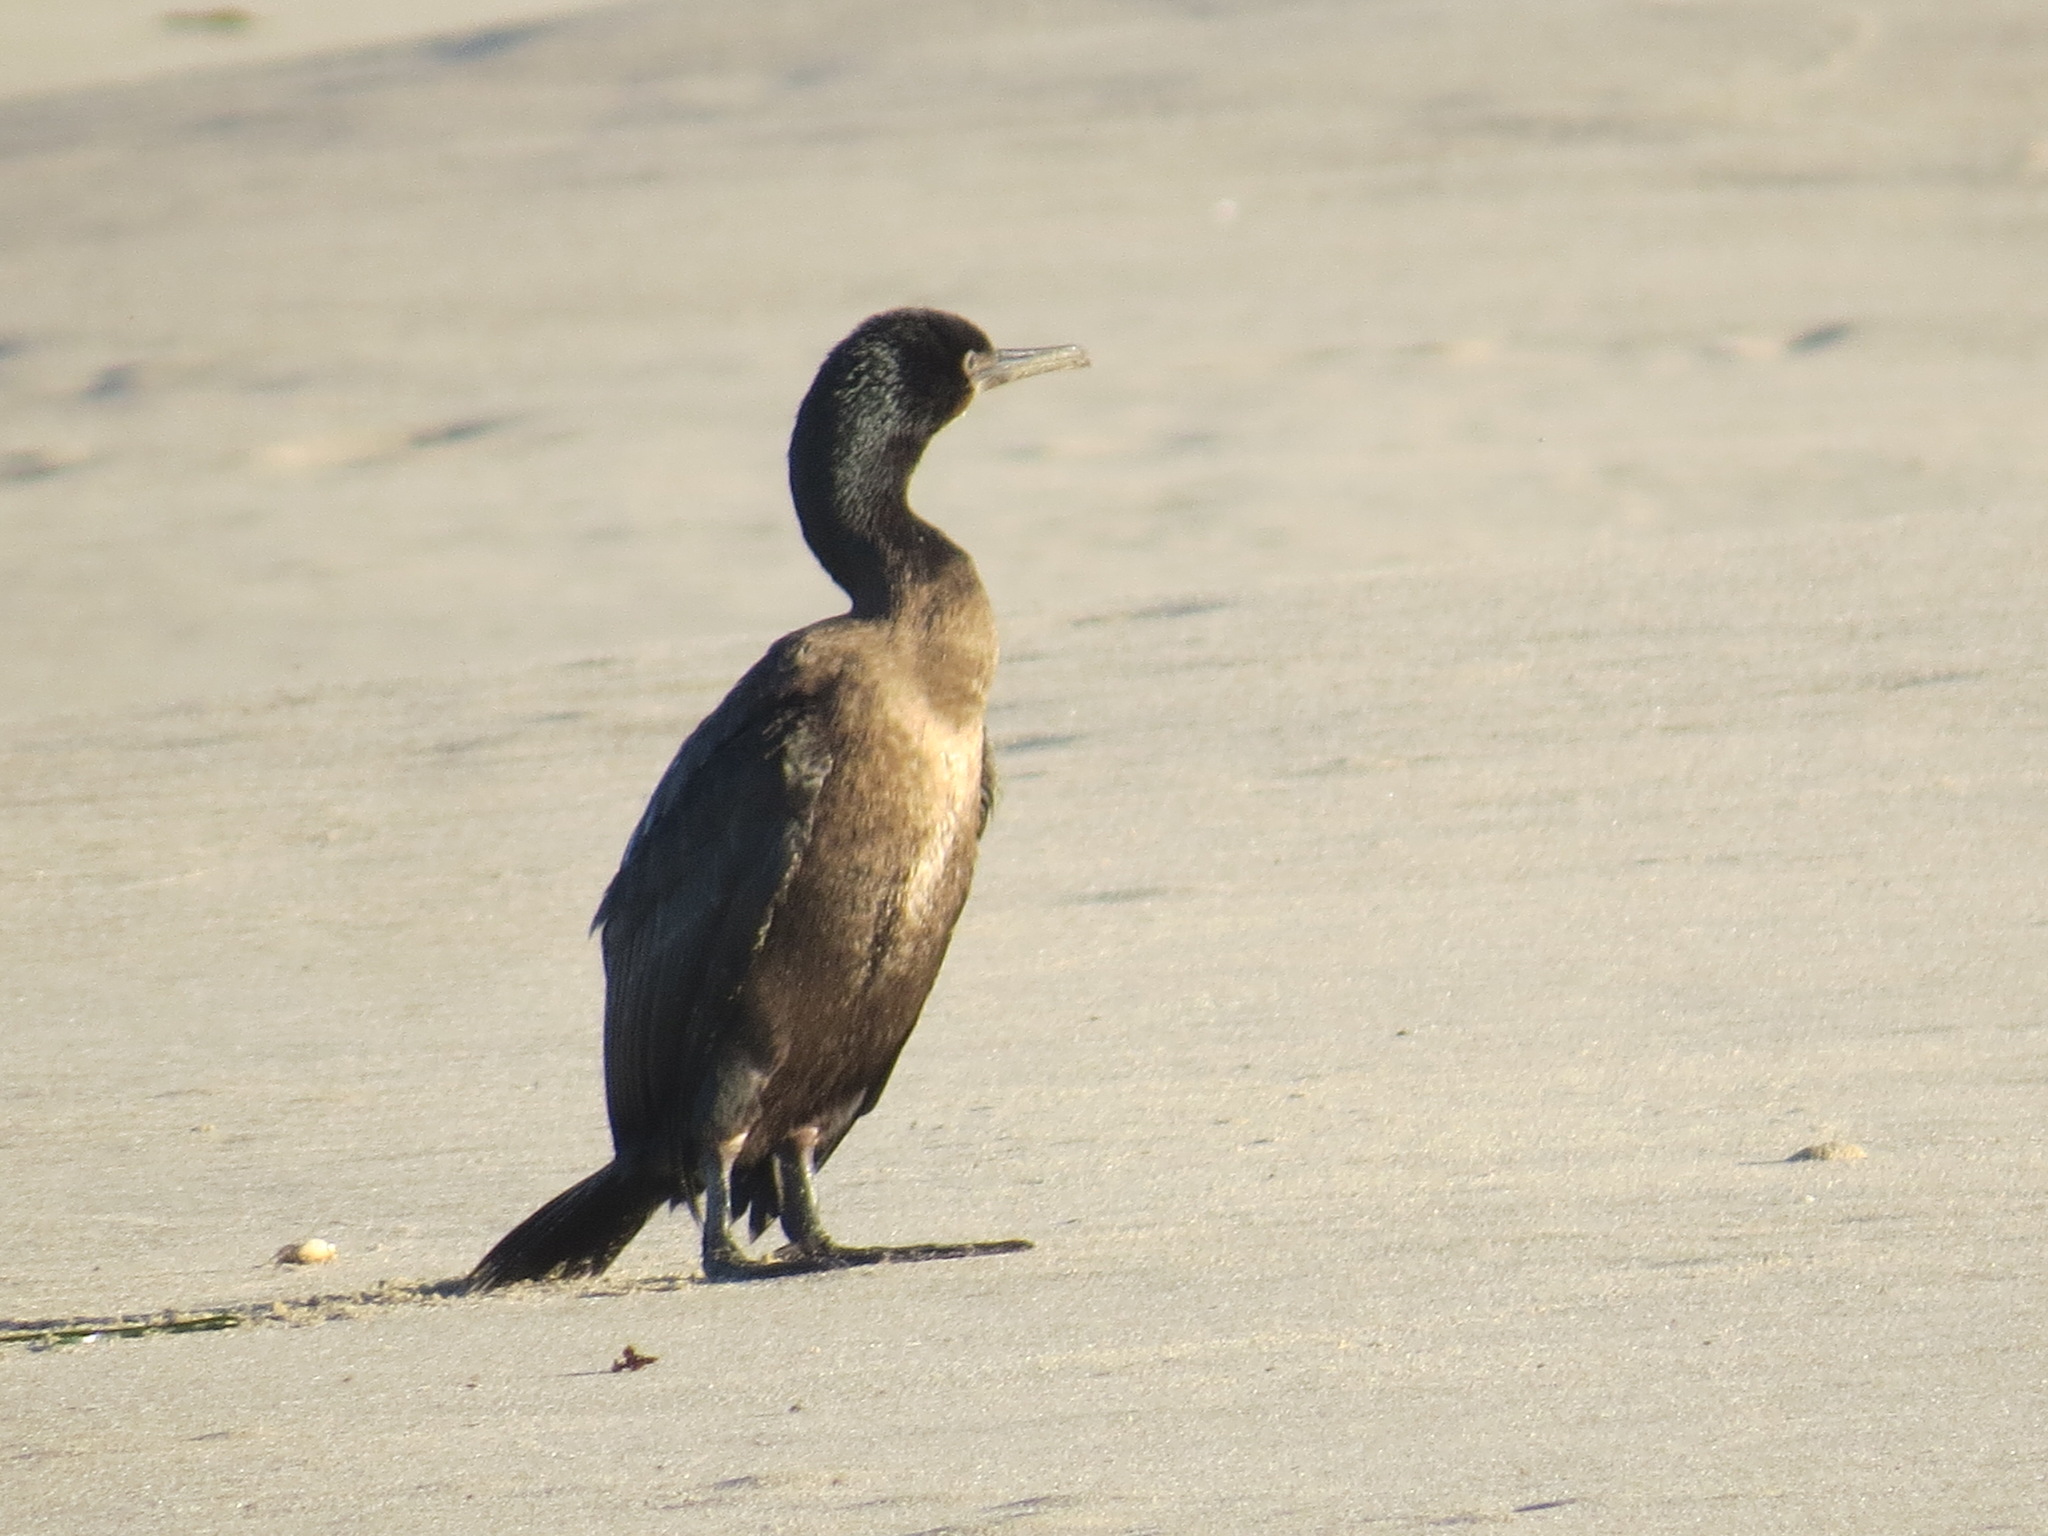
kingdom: Animalia
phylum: Chordata
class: Aves
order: Suliformes
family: Phalacrocoracidae
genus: Urile
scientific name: Urile penicillatus
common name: Brandt's cormorant
